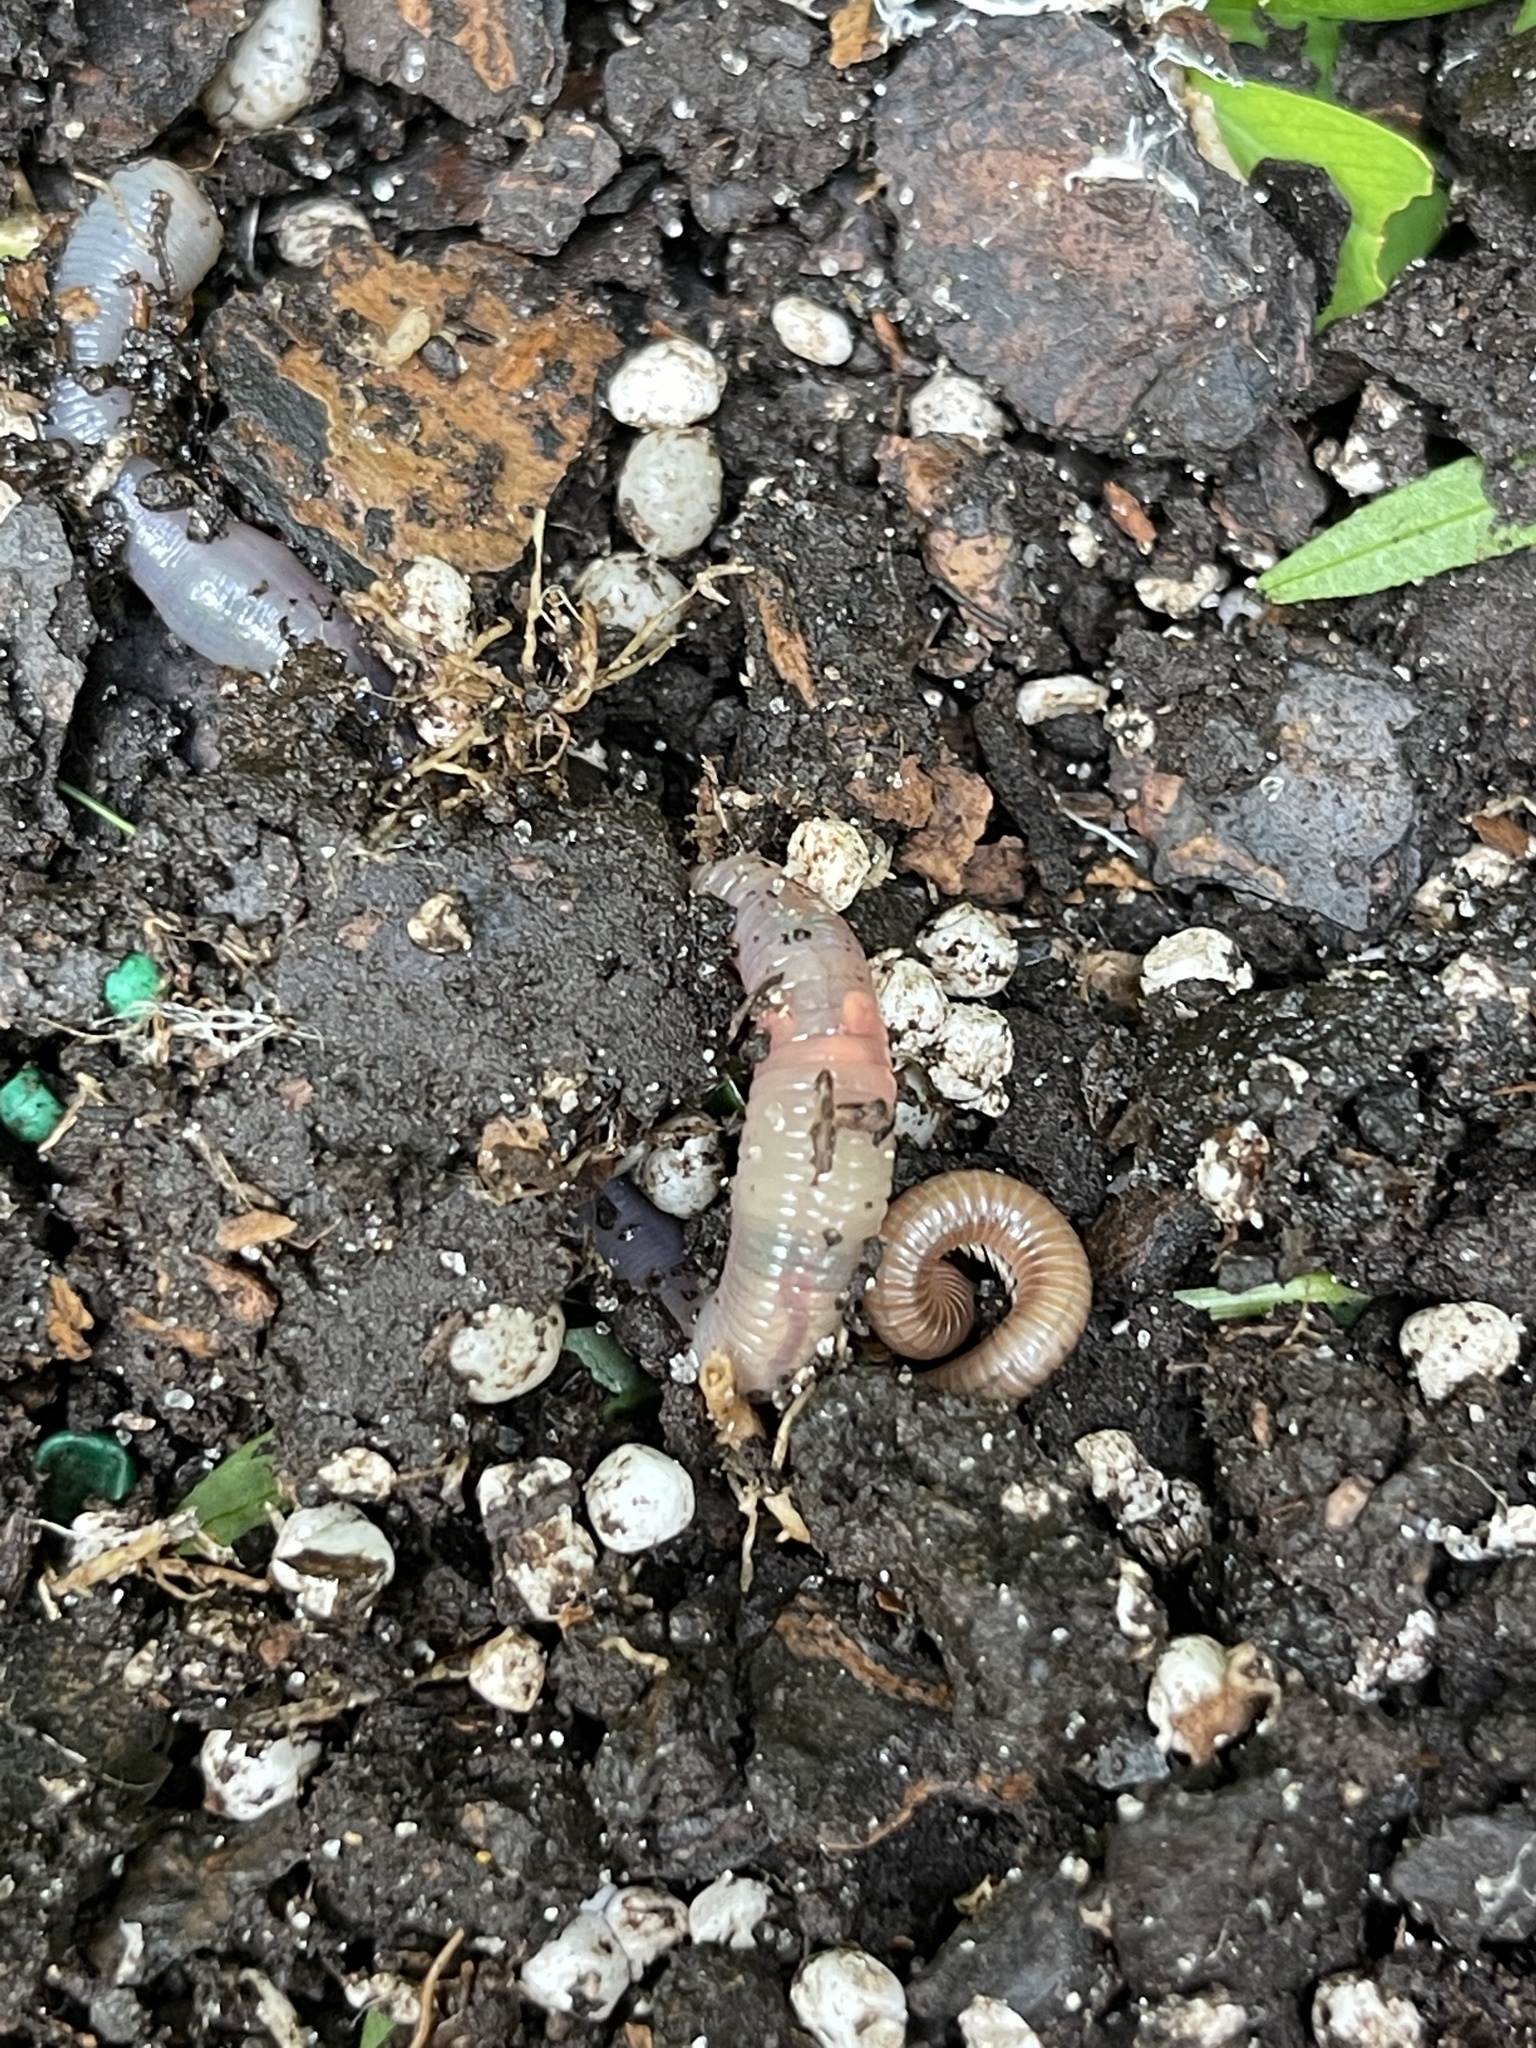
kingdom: Animalia
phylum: Arthropoda
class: Diplopoda
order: Spirobolida
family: Pachybolidae
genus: Trigoniulus
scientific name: Trigoniulus corallinus
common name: Millipede
